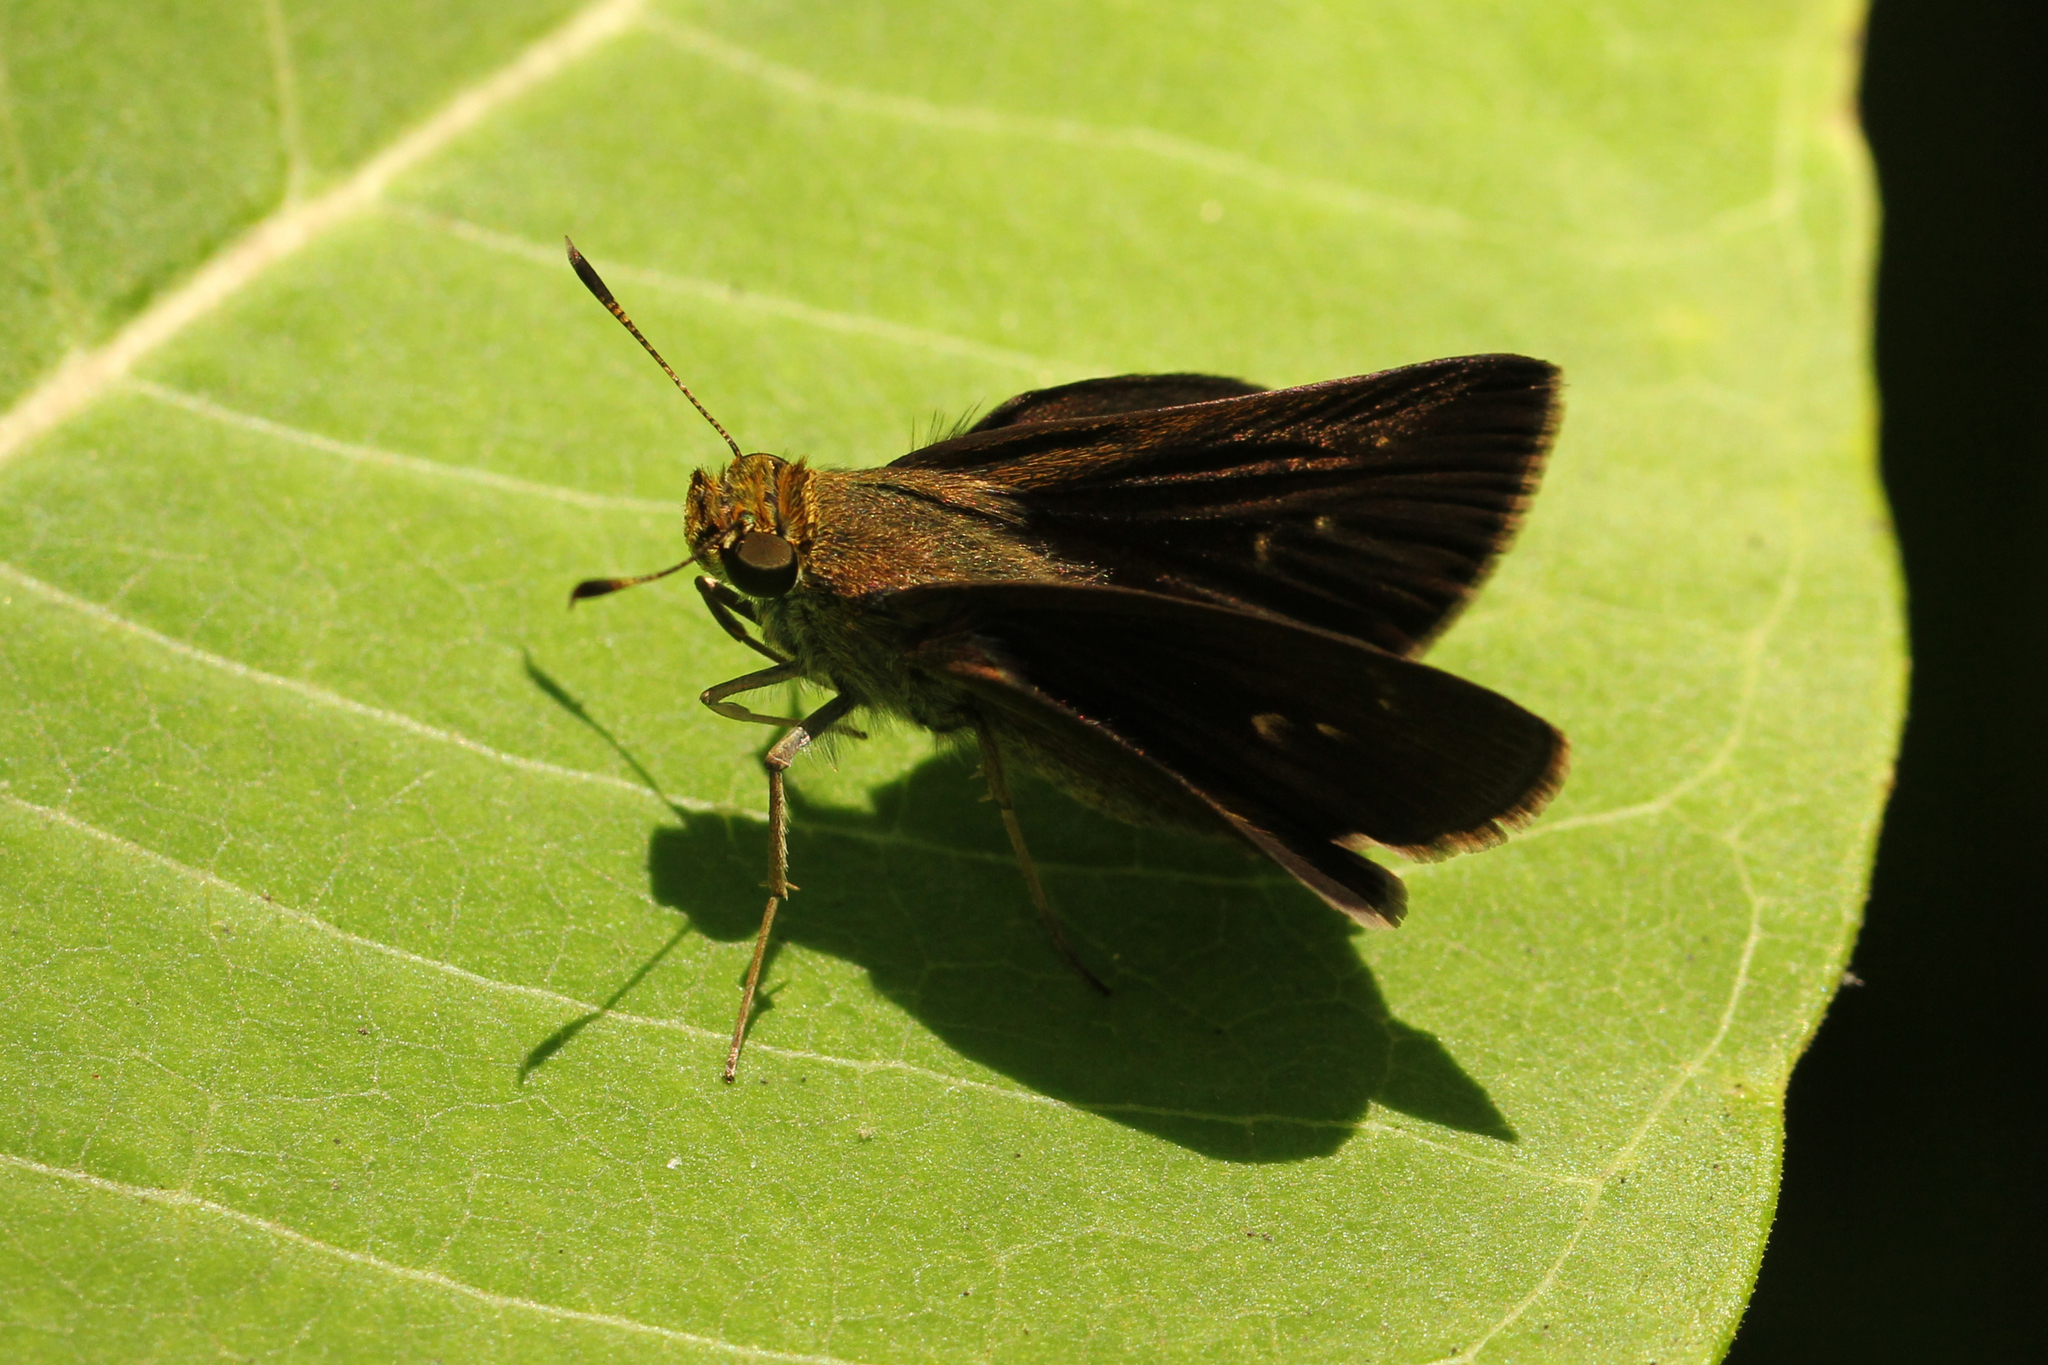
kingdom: Animalia
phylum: Arthropoda
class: Insecta
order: Lepidoptera
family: Hesperiidae
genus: Euphyes
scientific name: Euphyes vestris
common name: Dun skipper
